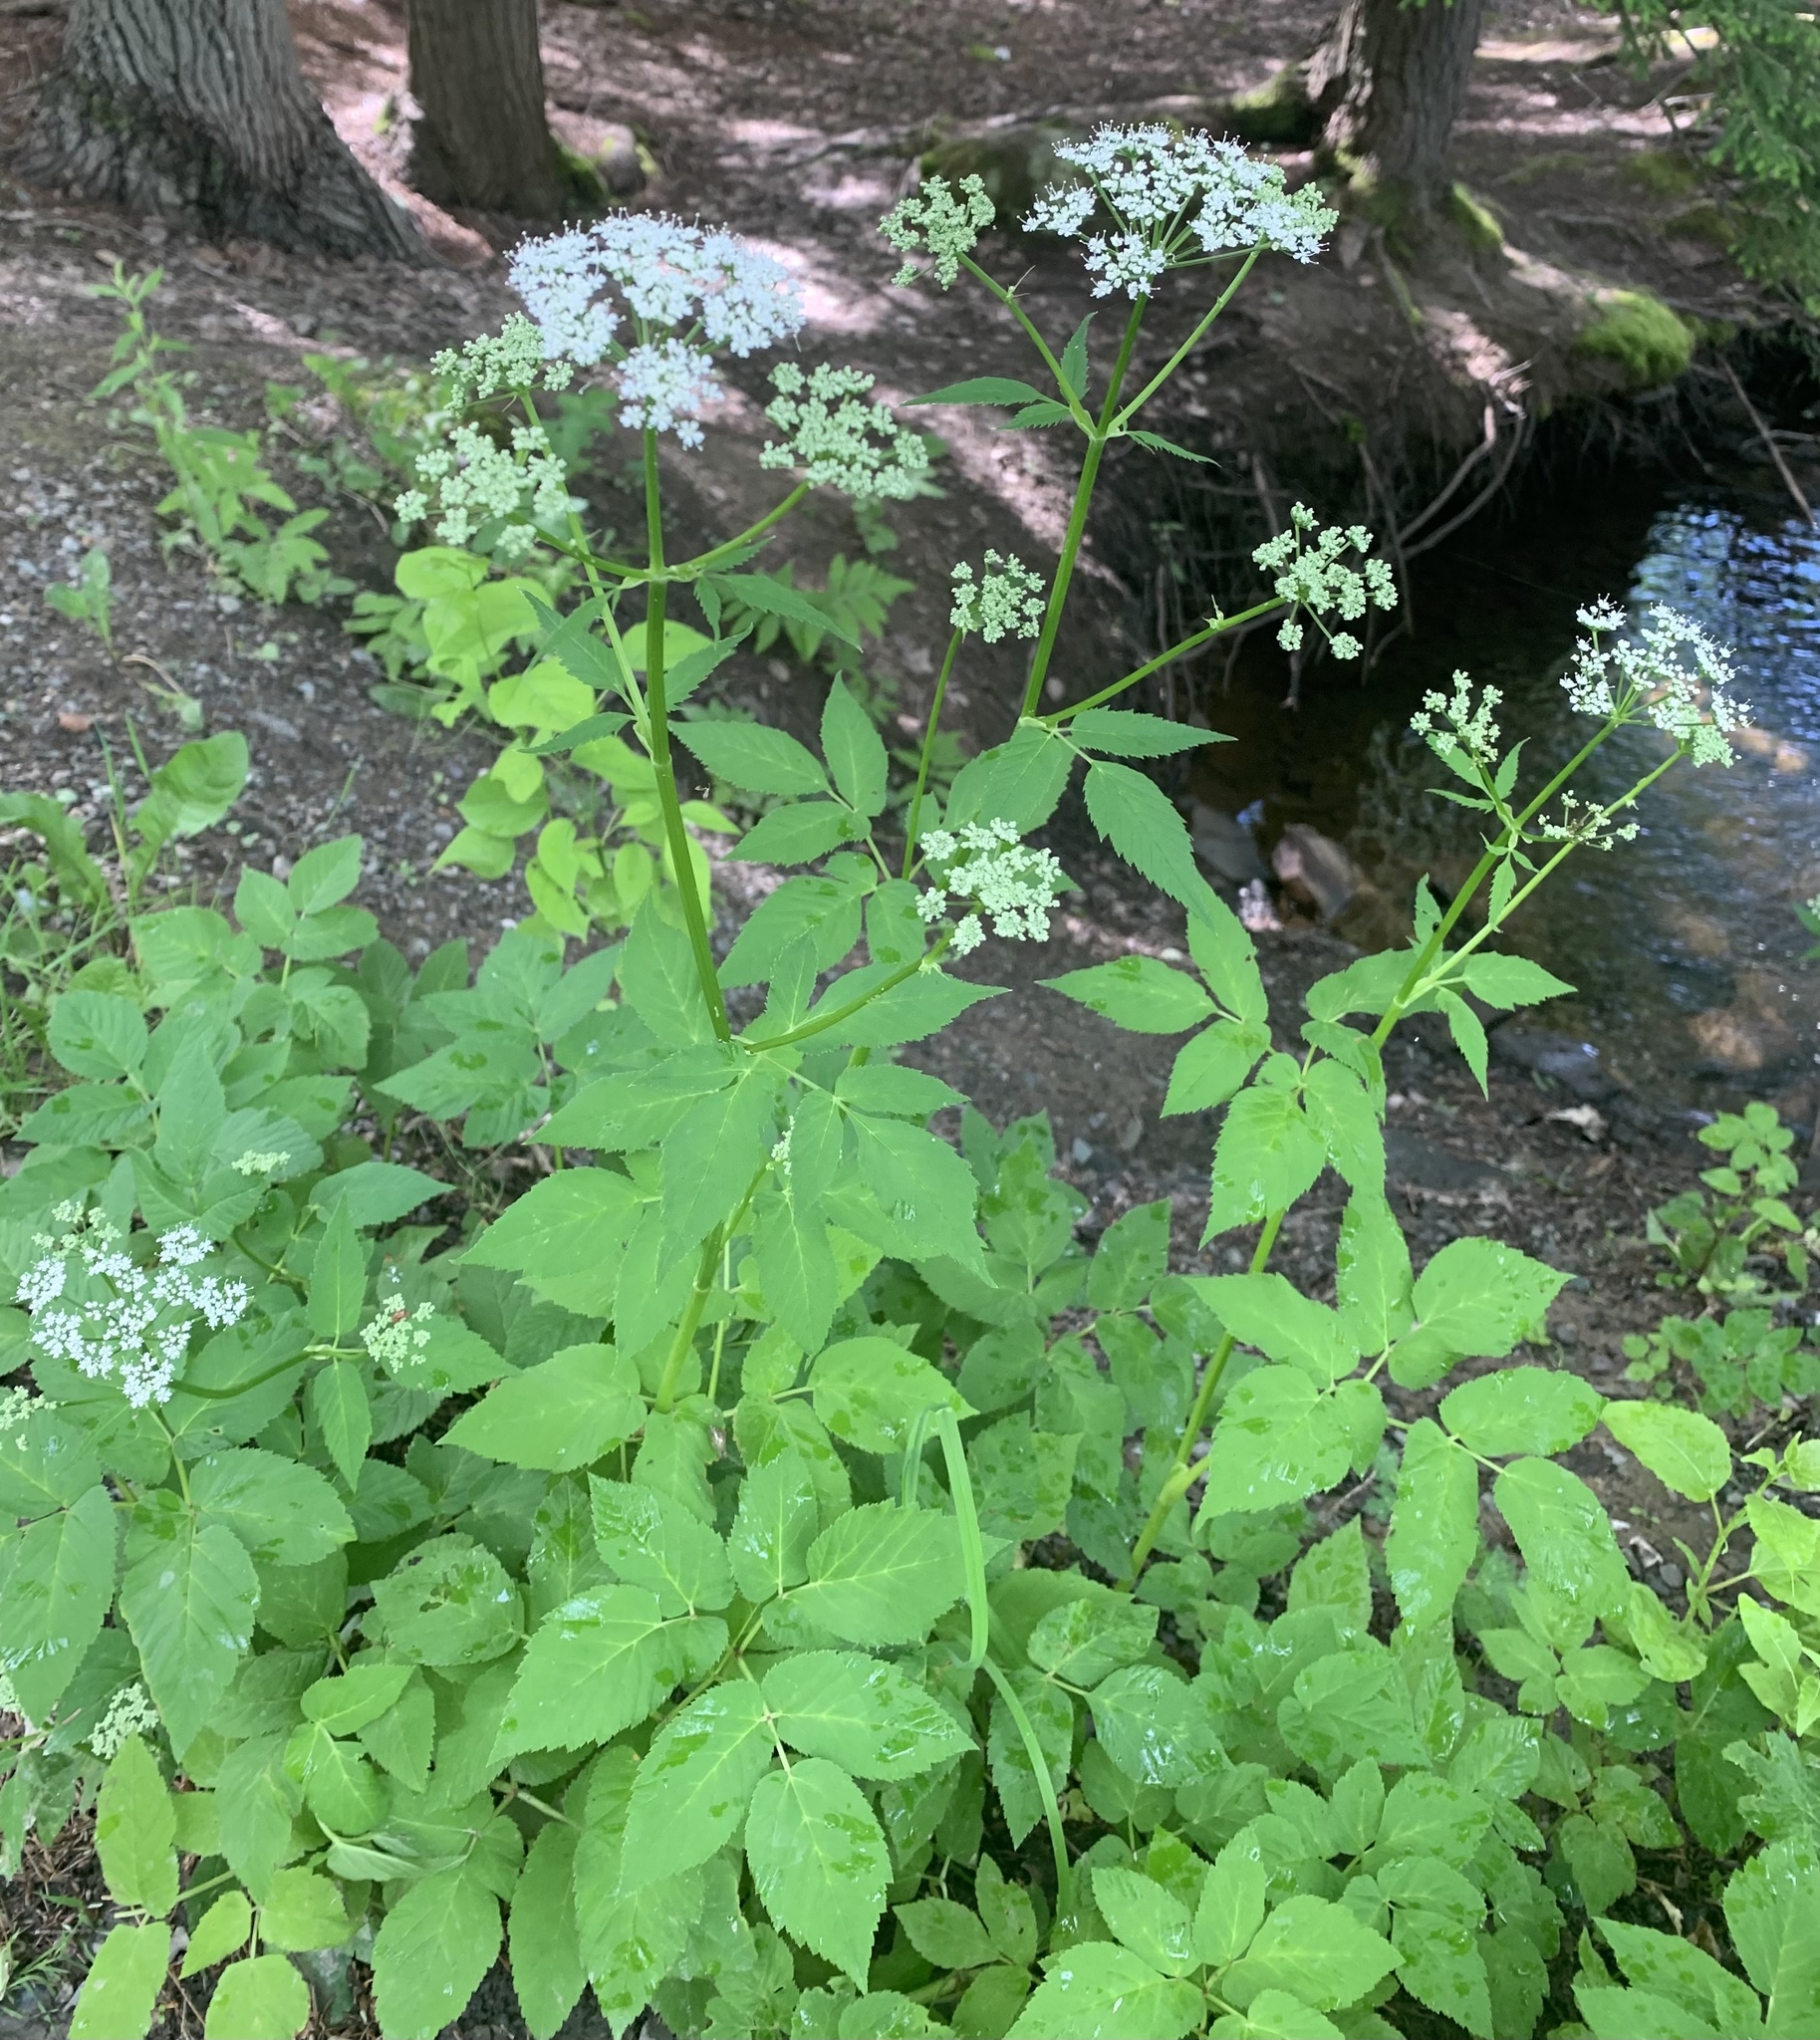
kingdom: Plantae
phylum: Tracheophyta
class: Magnoliopsida
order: Apiales
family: Apiaceae
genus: Aegopodium
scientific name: Aegopodium podagraria
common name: Ground-elder
